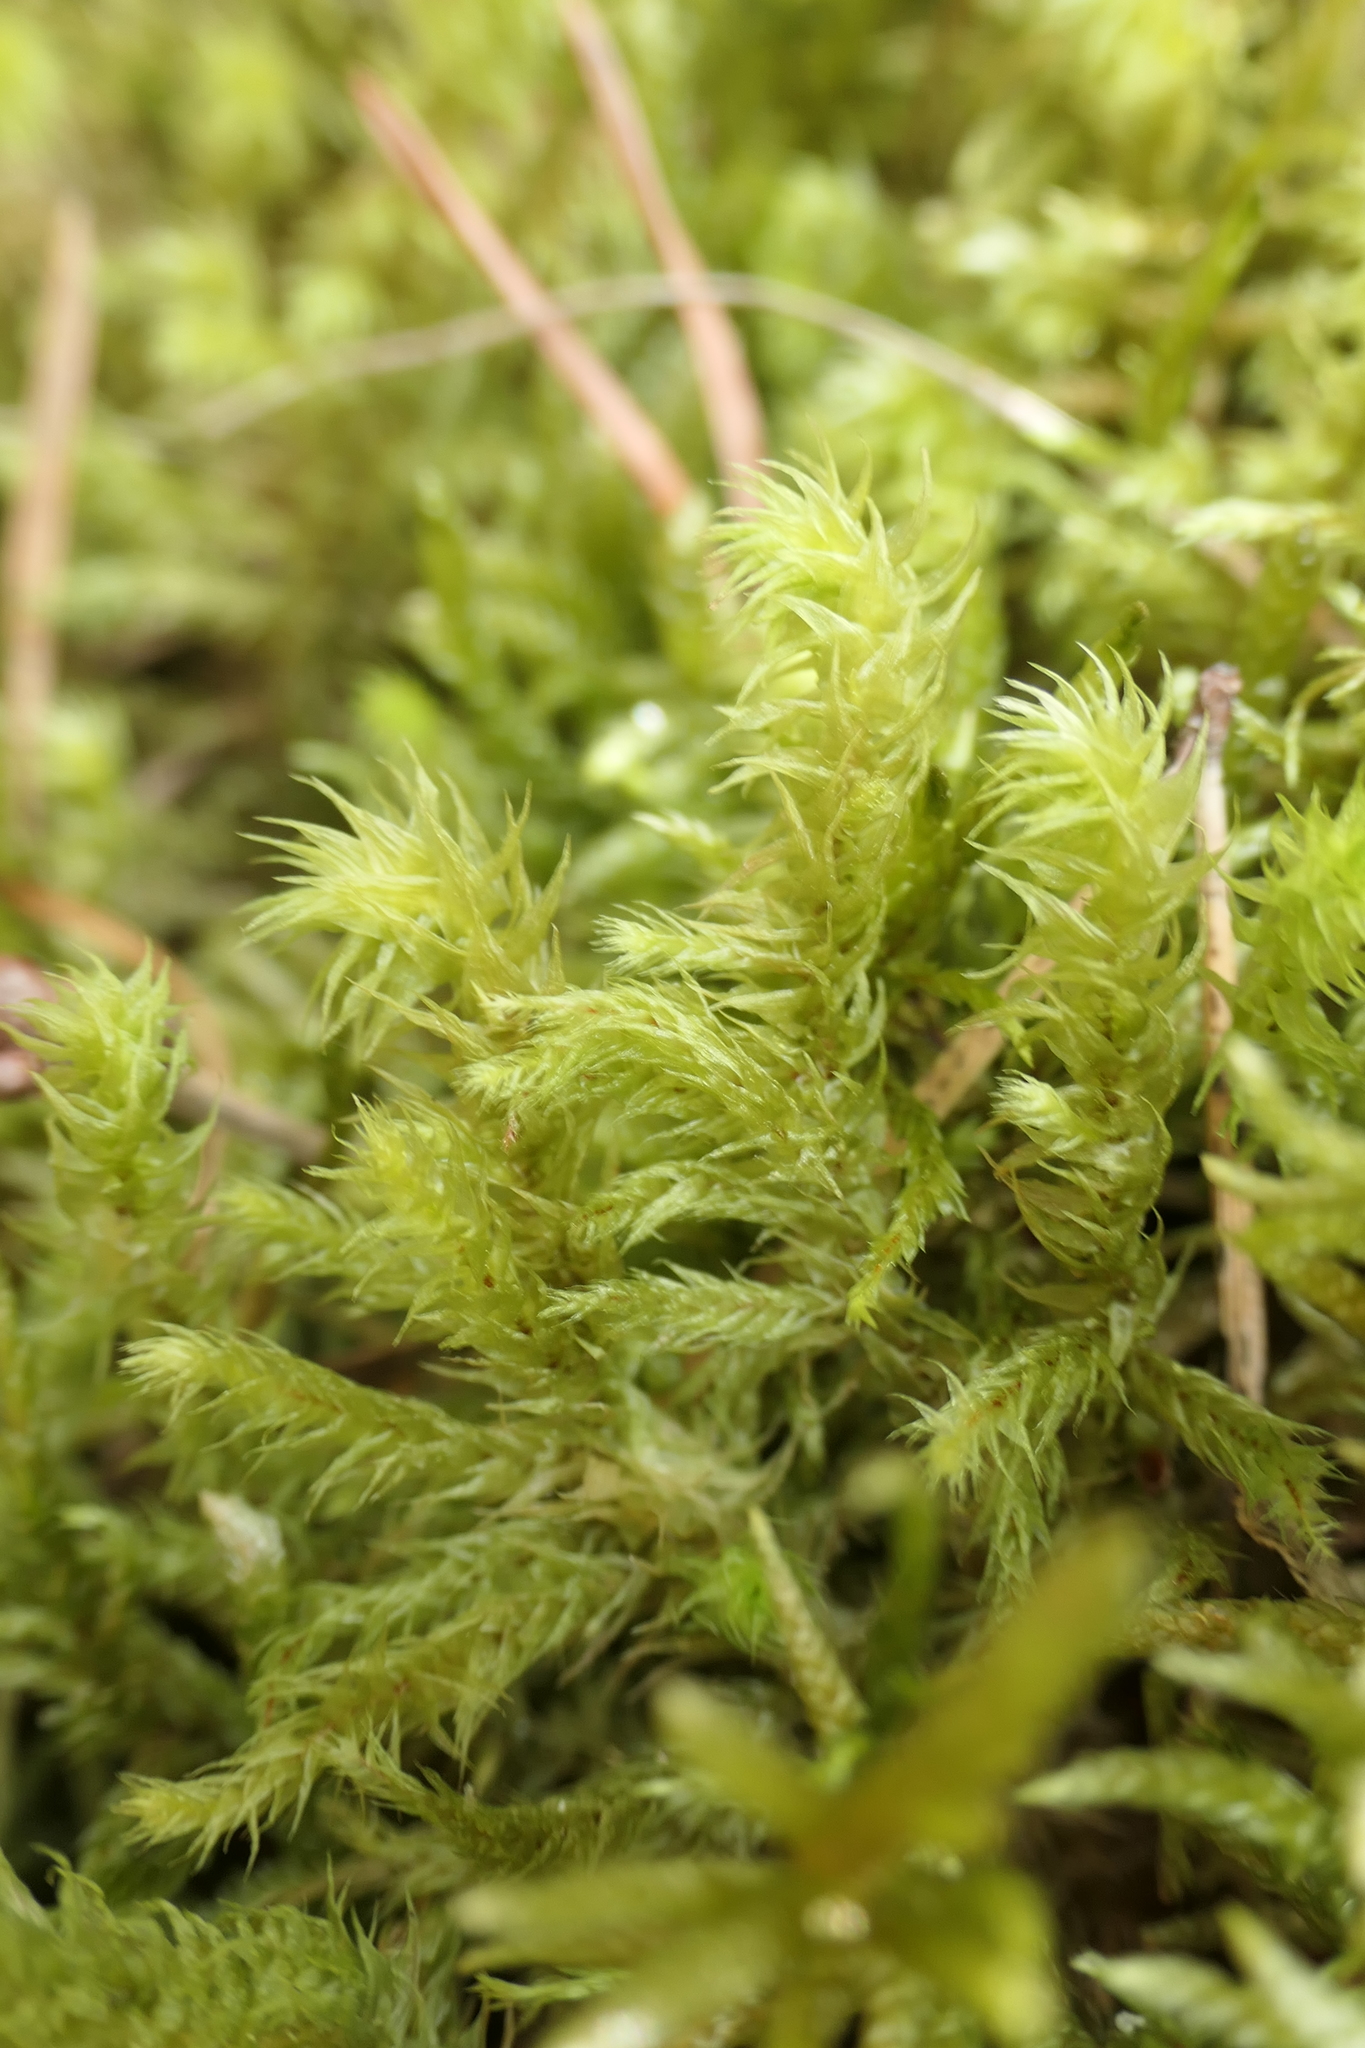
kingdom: Plantae
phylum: Bryophyta
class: Bryopsida
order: Hypnales
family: Hylocomiaceae
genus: Hylocomiadelphus
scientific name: Hylocomiadelphus triquetrus
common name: Rough goose neck moss
